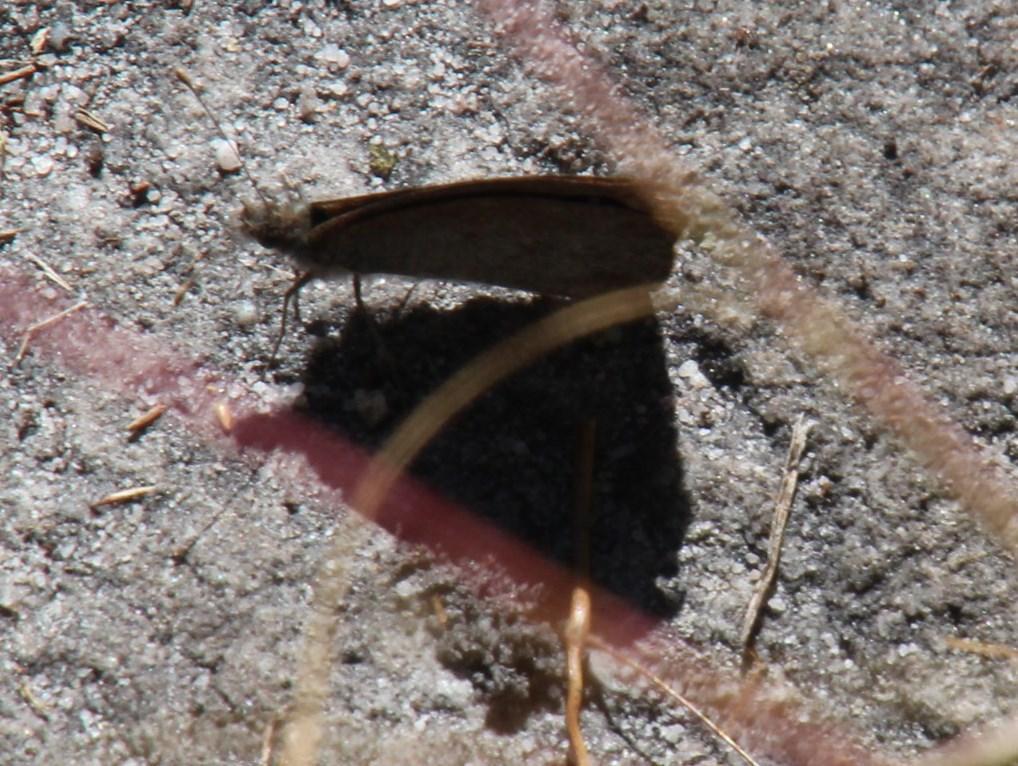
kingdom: Animalia
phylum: Arthropoda
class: Insecta
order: Lepidoptera
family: Nymphalidae
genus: Stygionympha
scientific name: Stygionympha vigilans
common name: Western hillside brown
